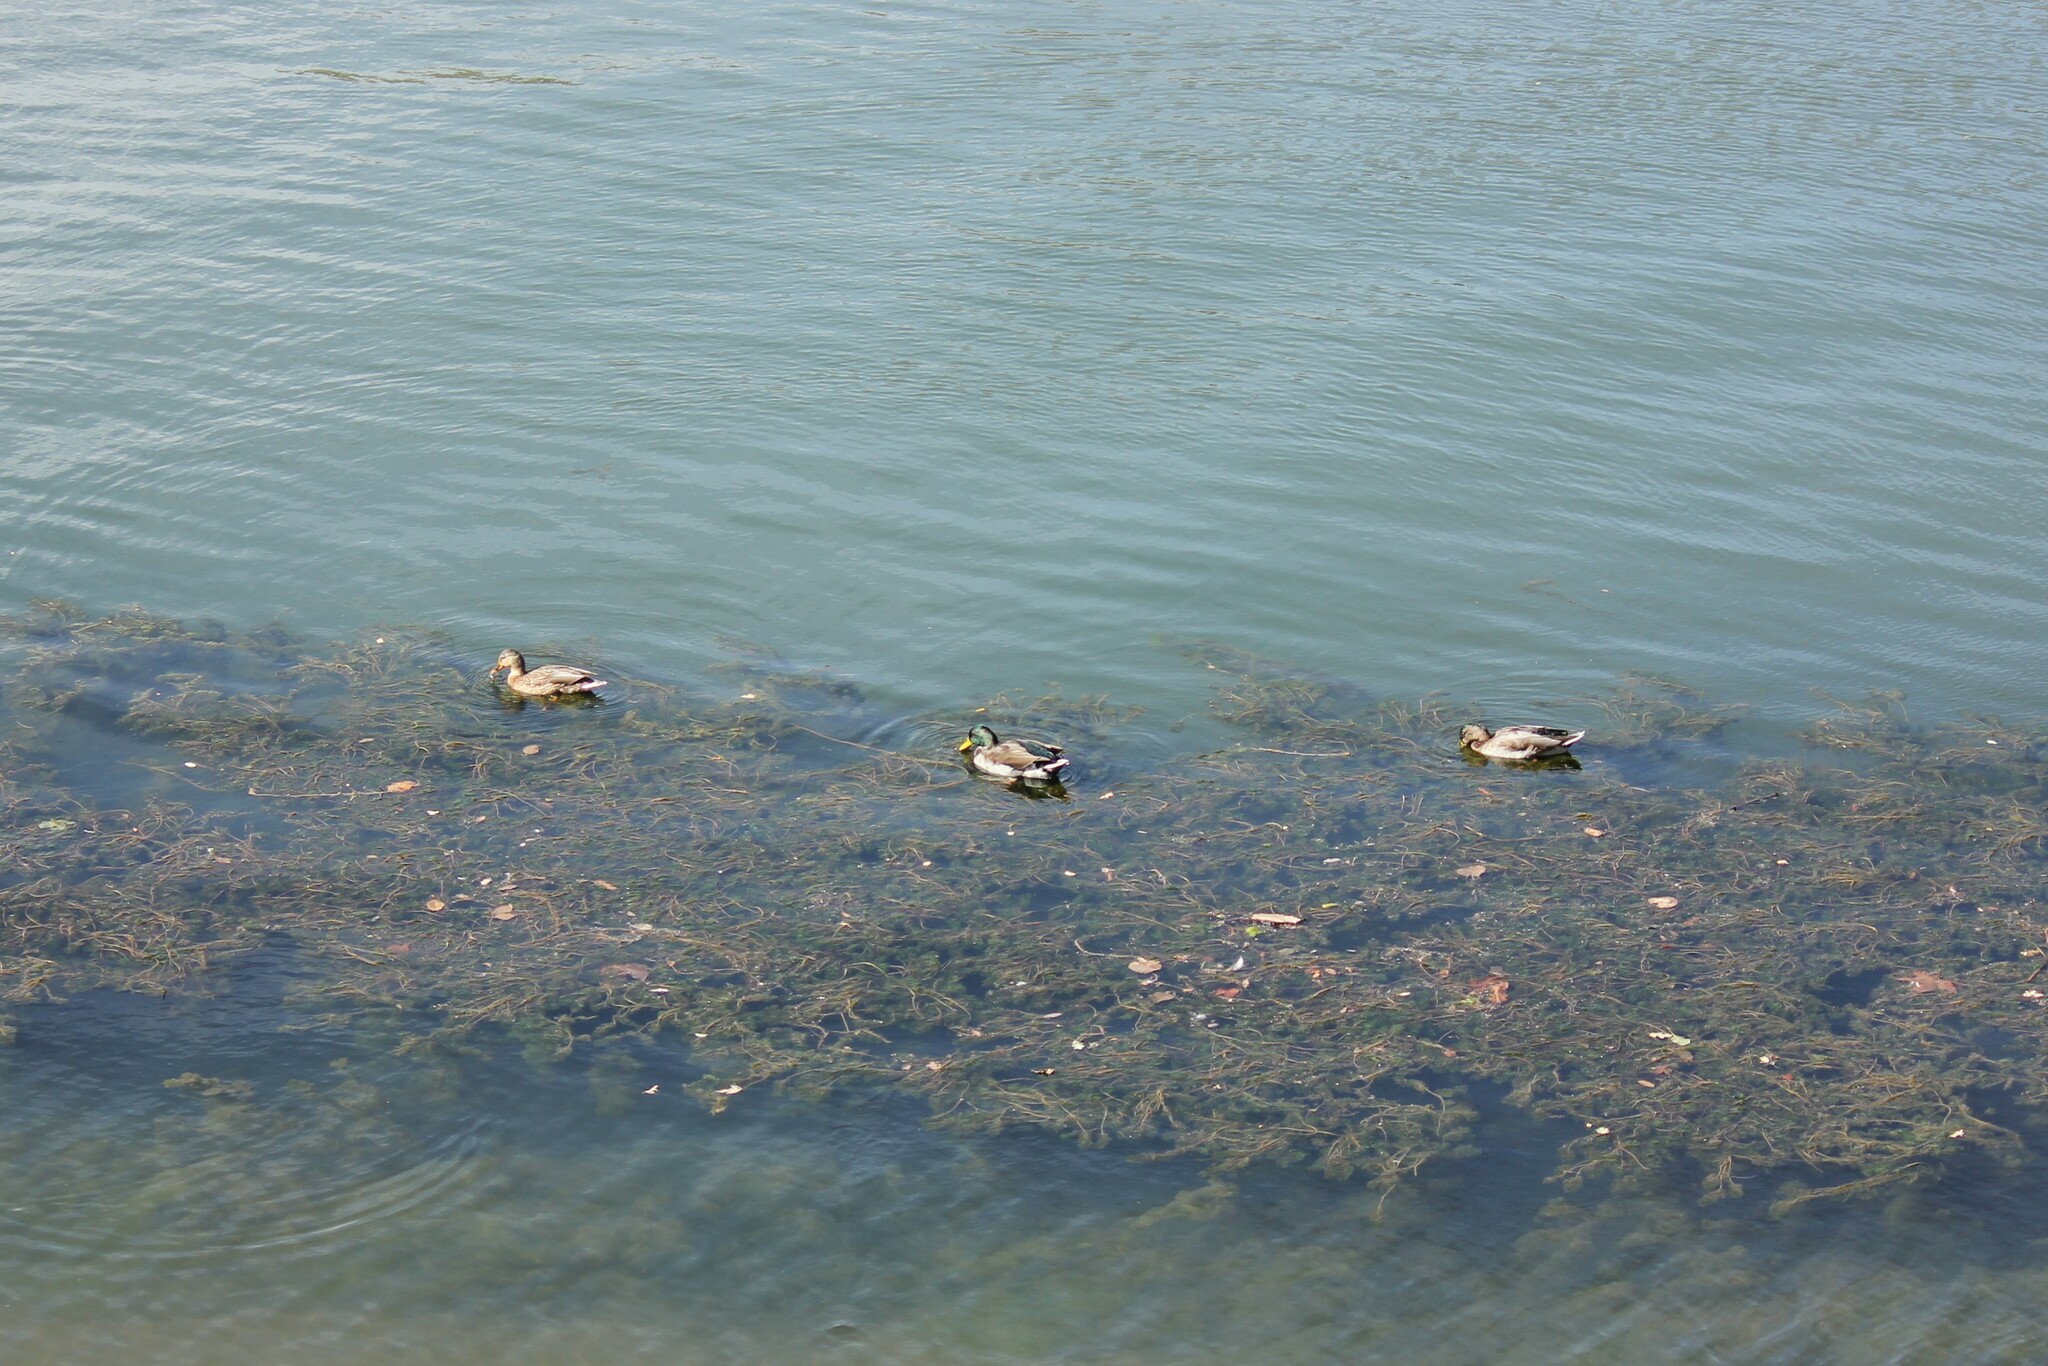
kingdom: Animalia
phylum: Chordata
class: Aves
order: Anseriformes
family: Anatidae
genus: Anas
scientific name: Anas platyrhynchos
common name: Mallard
